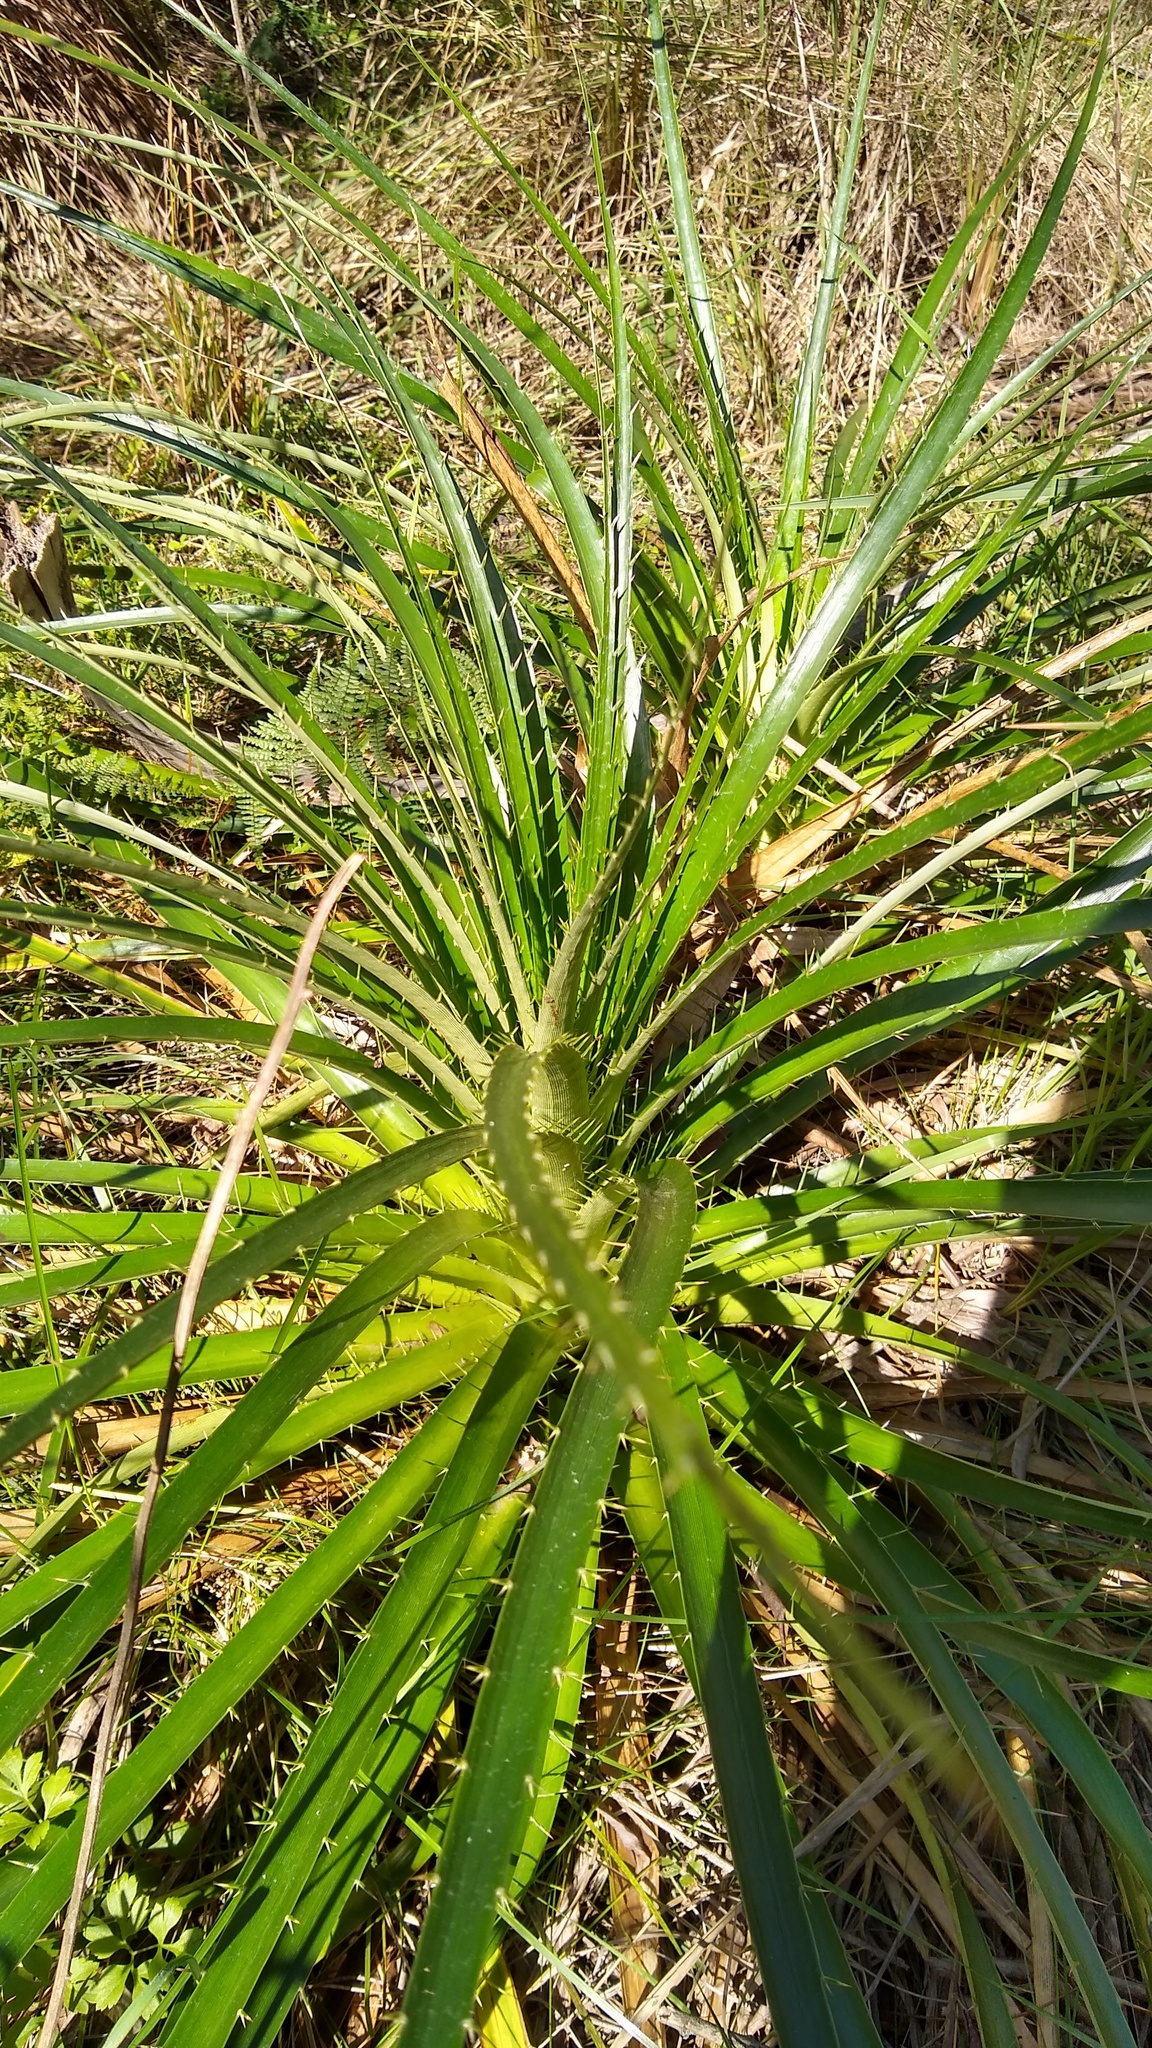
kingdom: Plantae
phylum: Tracheophyta
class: Magnoliopsida
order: Apiales
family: Apiaceae
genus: Eryngium
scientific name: Eryngium horridum
